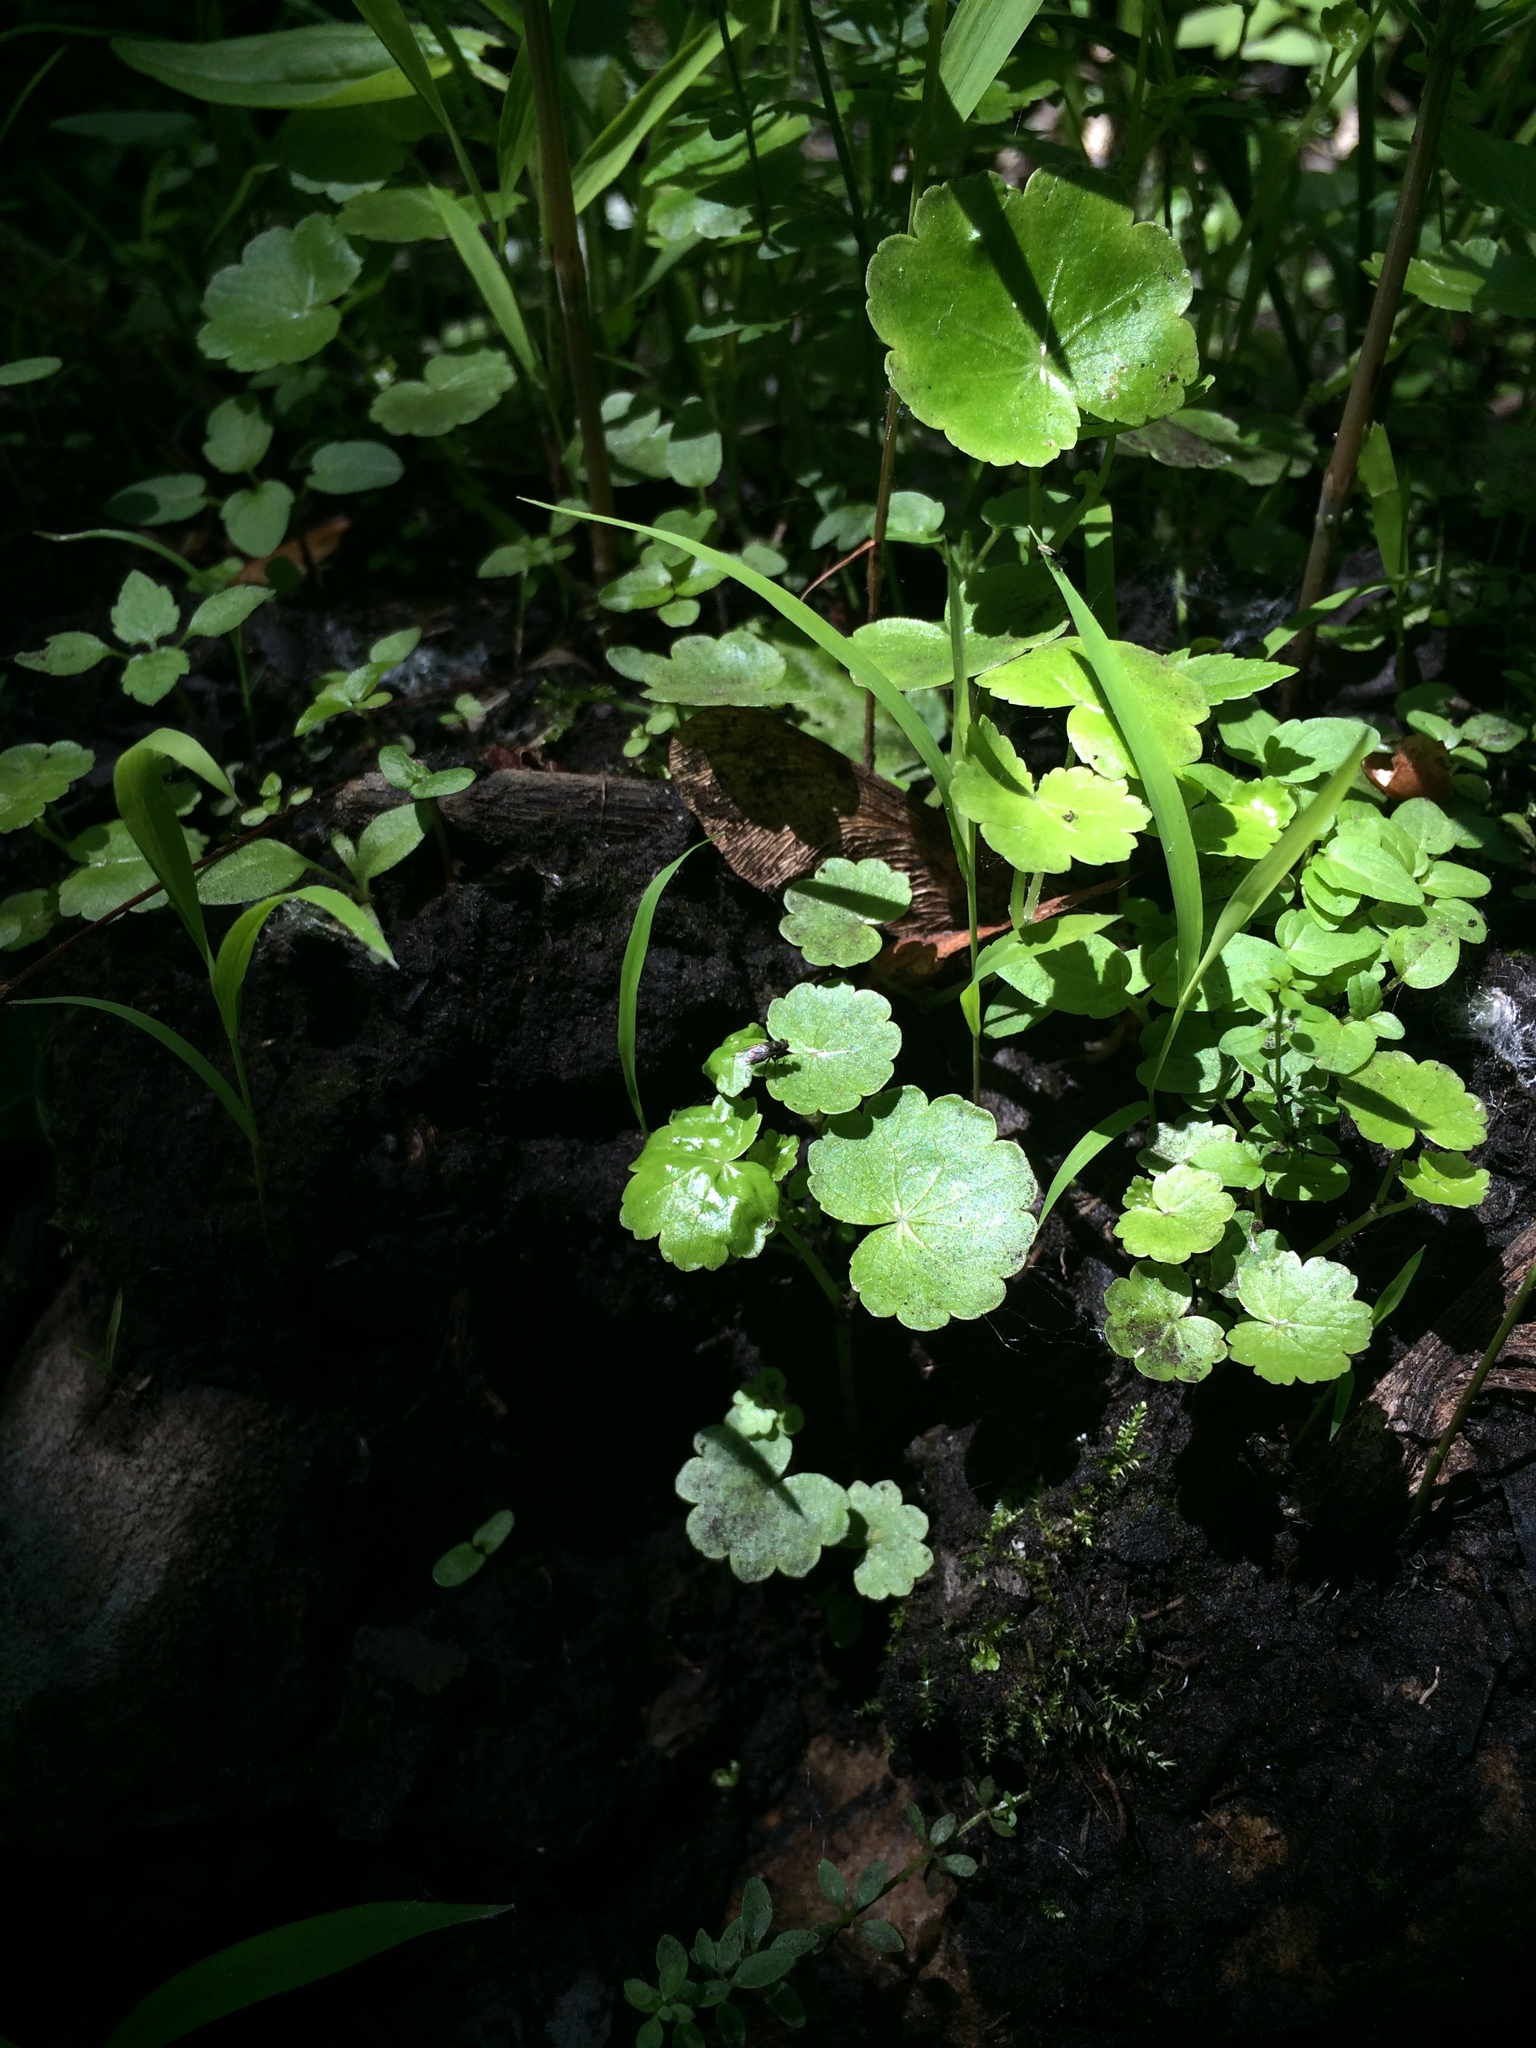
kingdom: Plantae
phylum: Tracheophyta
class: Magnoliopsida
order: Apiales
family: Araliaceae
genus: Hydrocotyle
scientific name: Hydrocotyle americana
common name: American water-pennywort
